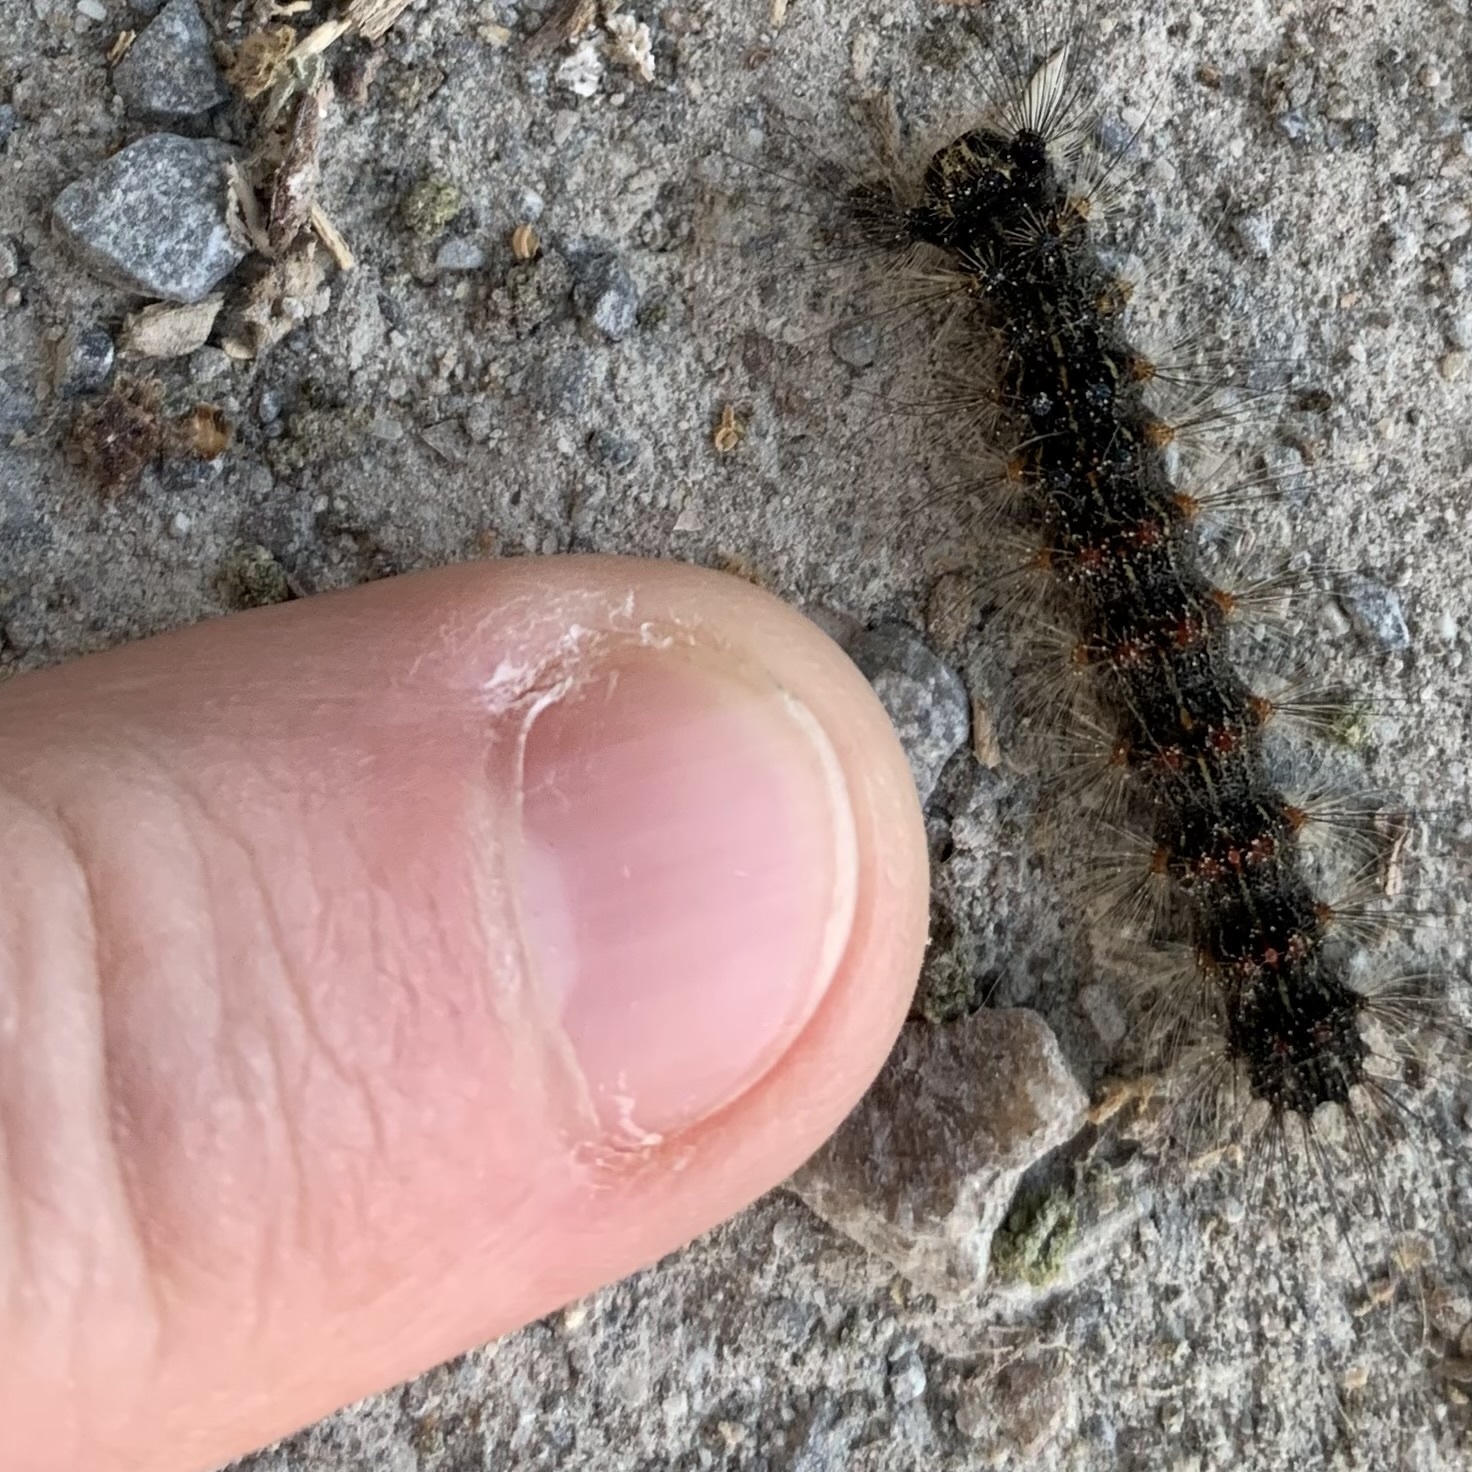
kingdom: Animalia
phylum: Arthropoda
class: Insecta
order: Lepidoptera
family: Erebidae
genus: Lymantria
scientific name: Lymantria dispar
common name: Gypsy moth
